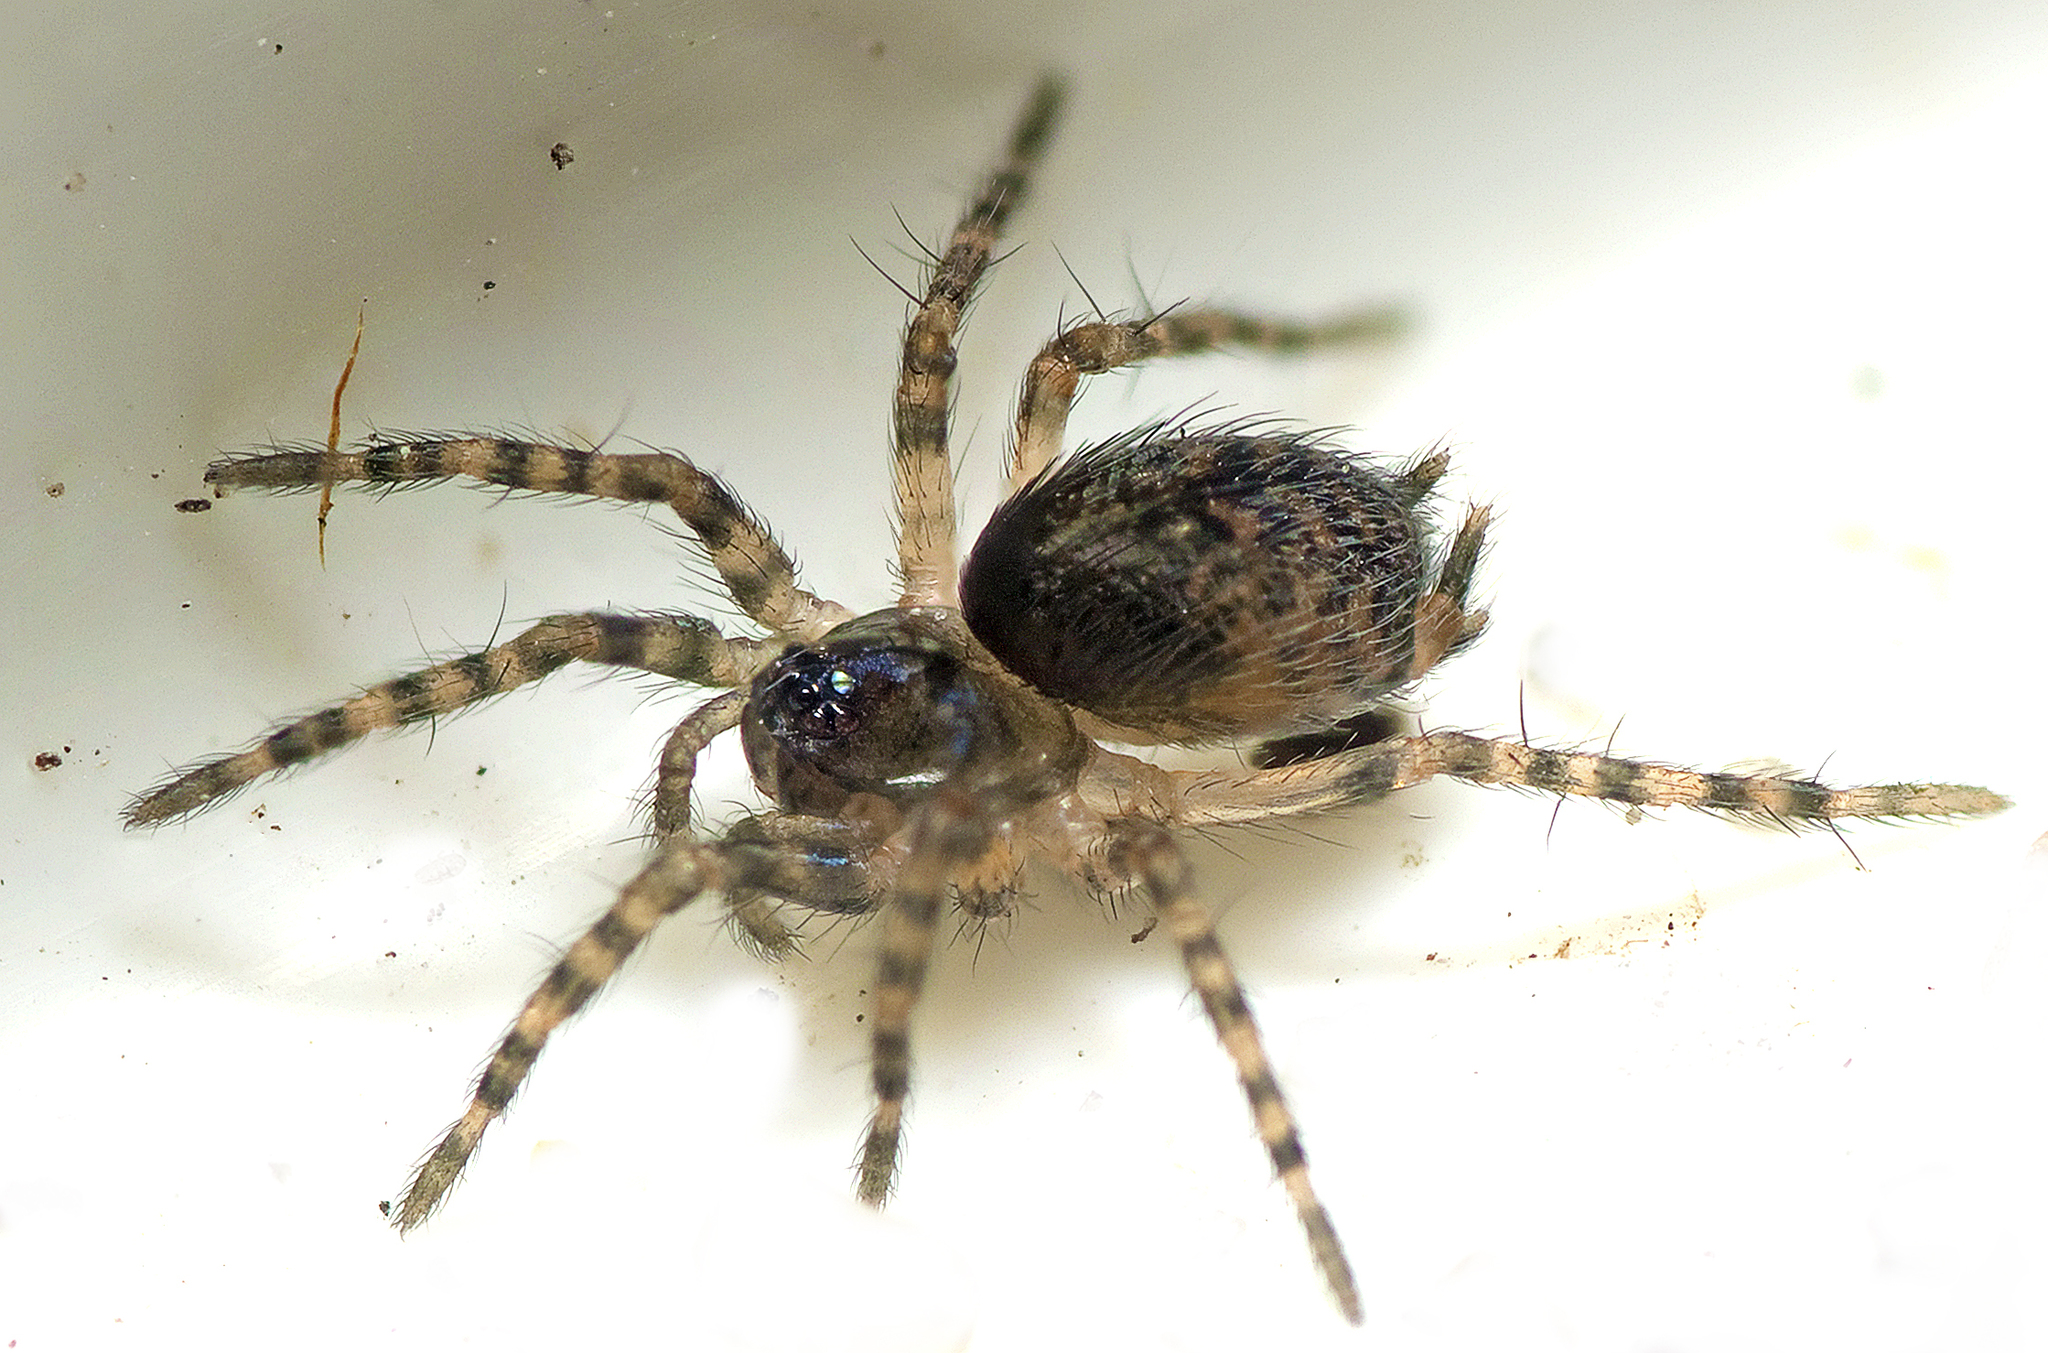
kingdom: Animalia
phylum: Arthropoda
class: Arachnida
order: Araneae
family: Hahniidae
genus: Scotospilus
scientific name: Scotospilus
